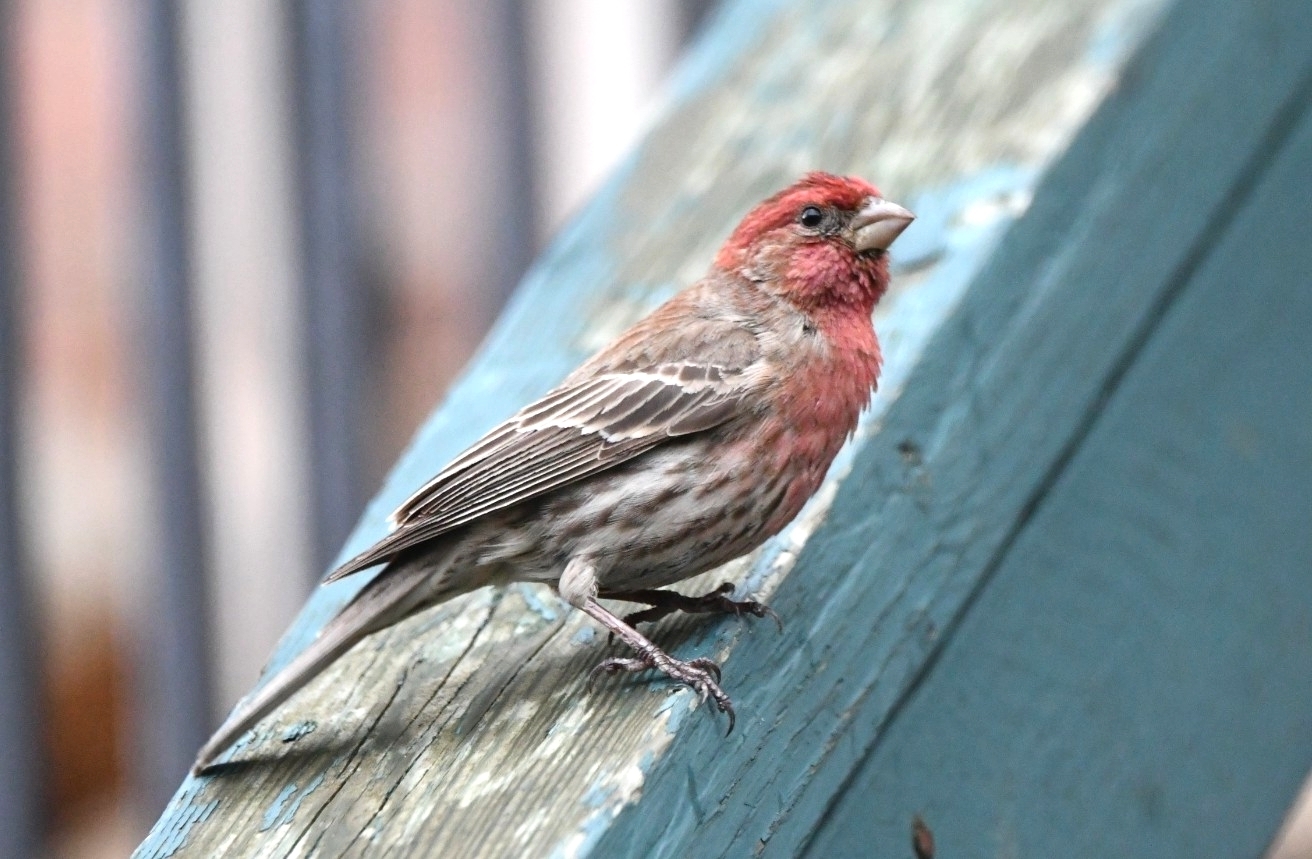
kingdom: Animalia
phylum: Chordata
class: Aves
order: Passeriformes
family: Fringillidae
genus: Haemorhous
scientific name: Haemorhous mexicanus
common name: House finch
